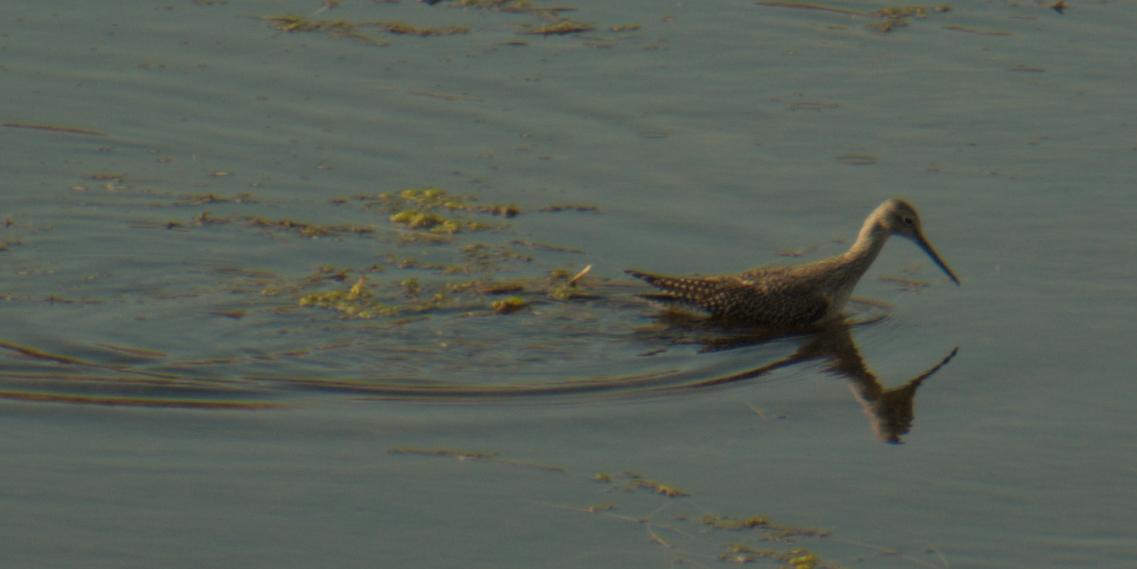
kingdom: Animalia
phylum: Chordata
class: Aves
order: Charadriiformes
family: Scolopacidae
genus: Tringa
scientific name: Tringa melanoleuca
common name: Greater yellowlegs
